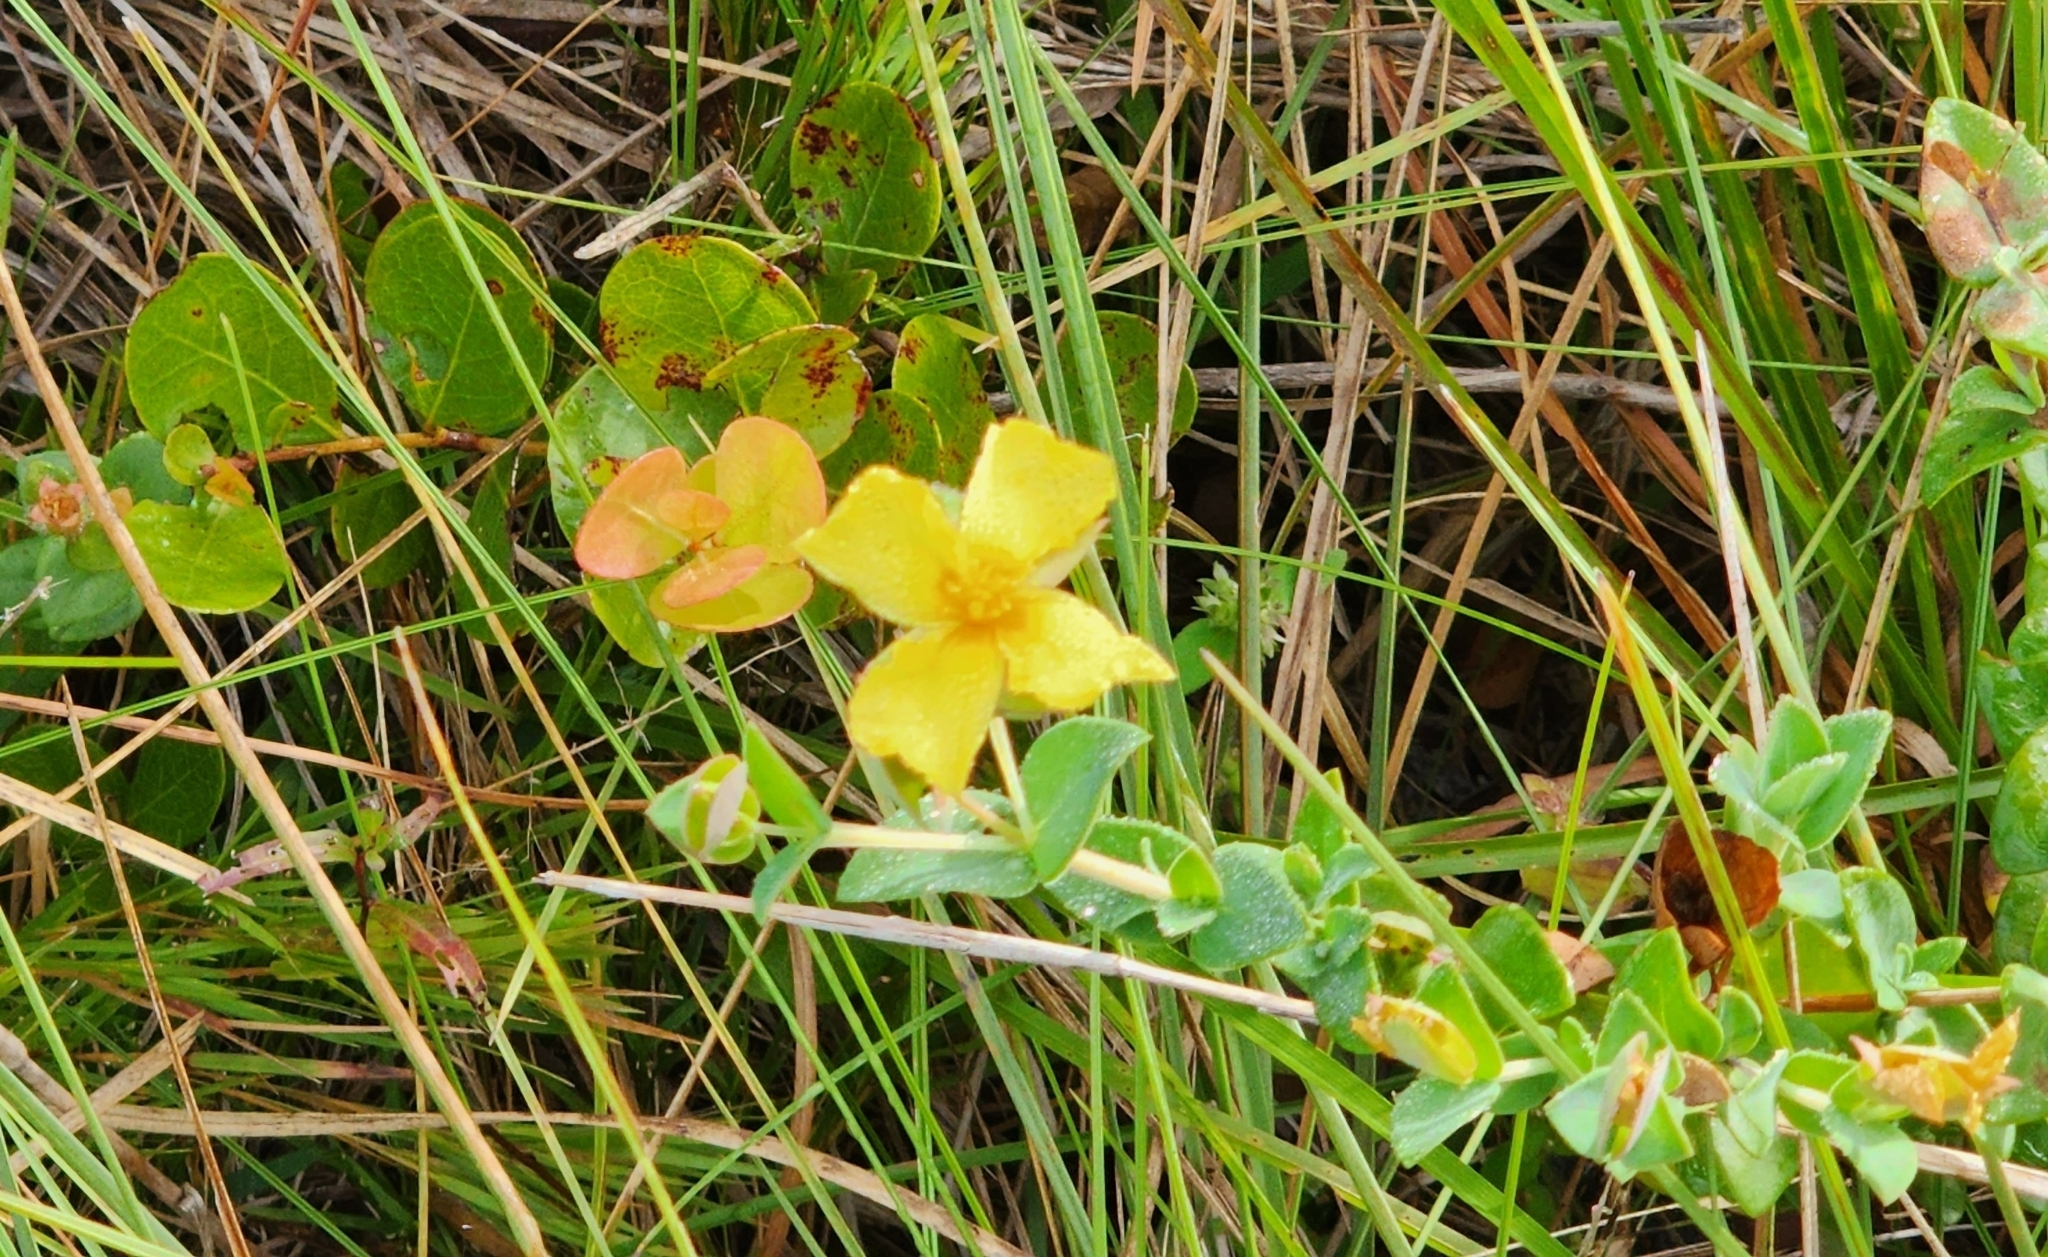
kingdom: Plantae
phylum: Tracheophyta
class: Magnoliopsida
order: Malpighiales
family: Hypericaceae
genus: Hypericum
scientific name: Hypericum tetrapetalum
